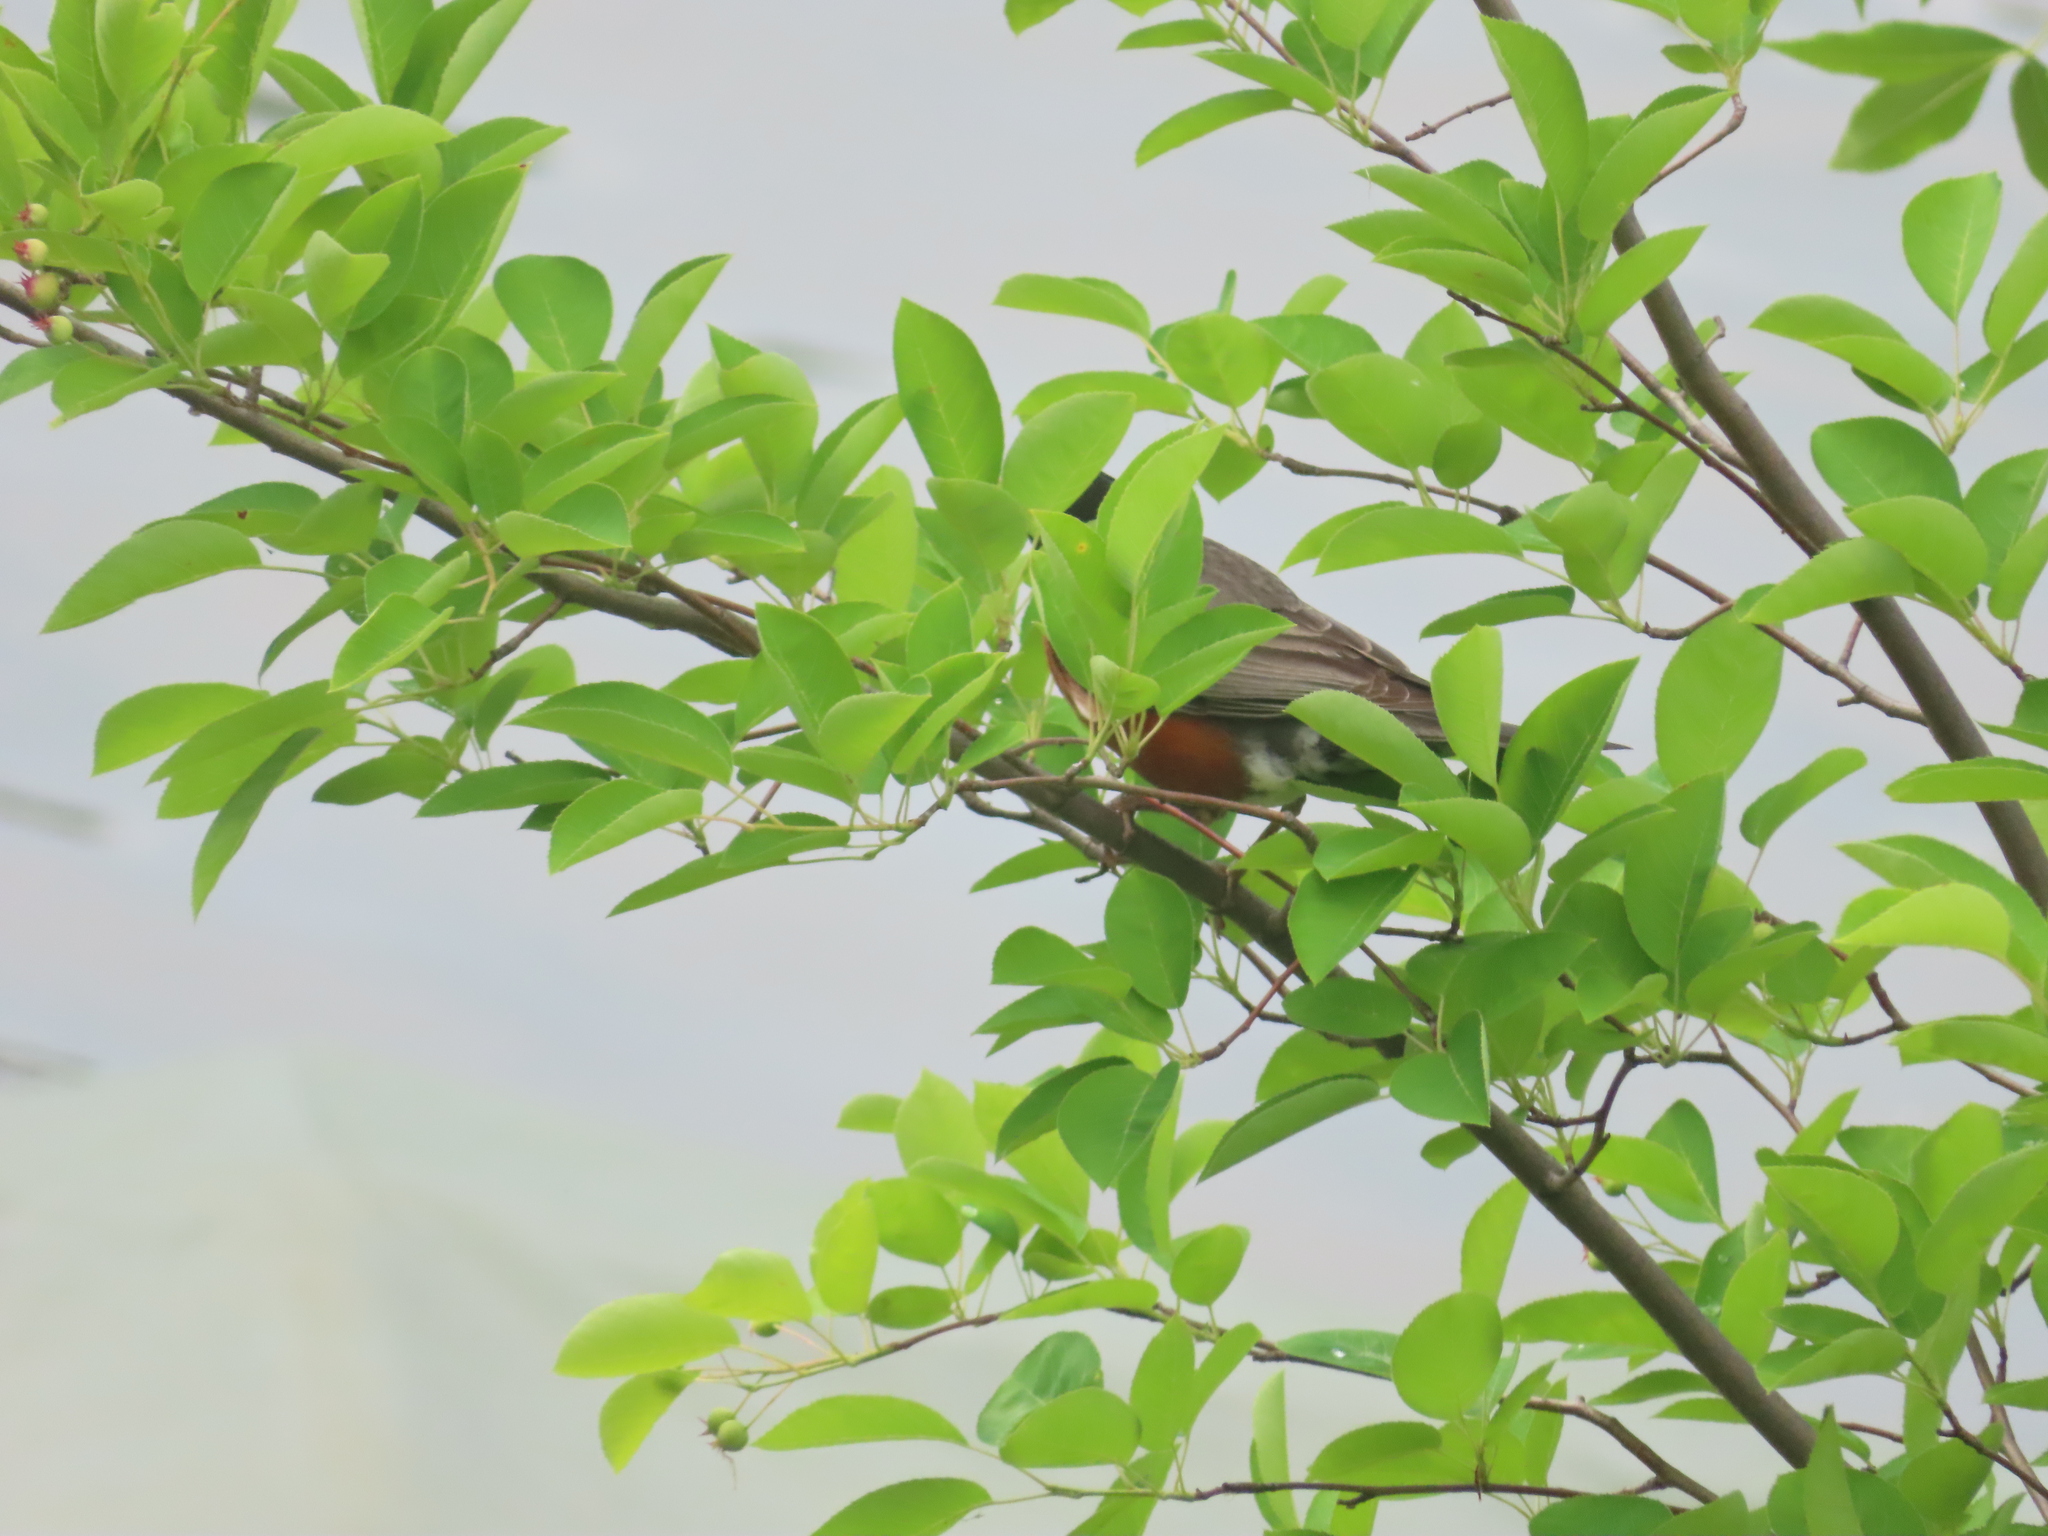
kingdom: Animalia
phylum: Chordata
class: Aves
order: Passeriformes
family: Turdidae
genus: Turdus
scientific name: Turdus migratorius
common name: American robin
